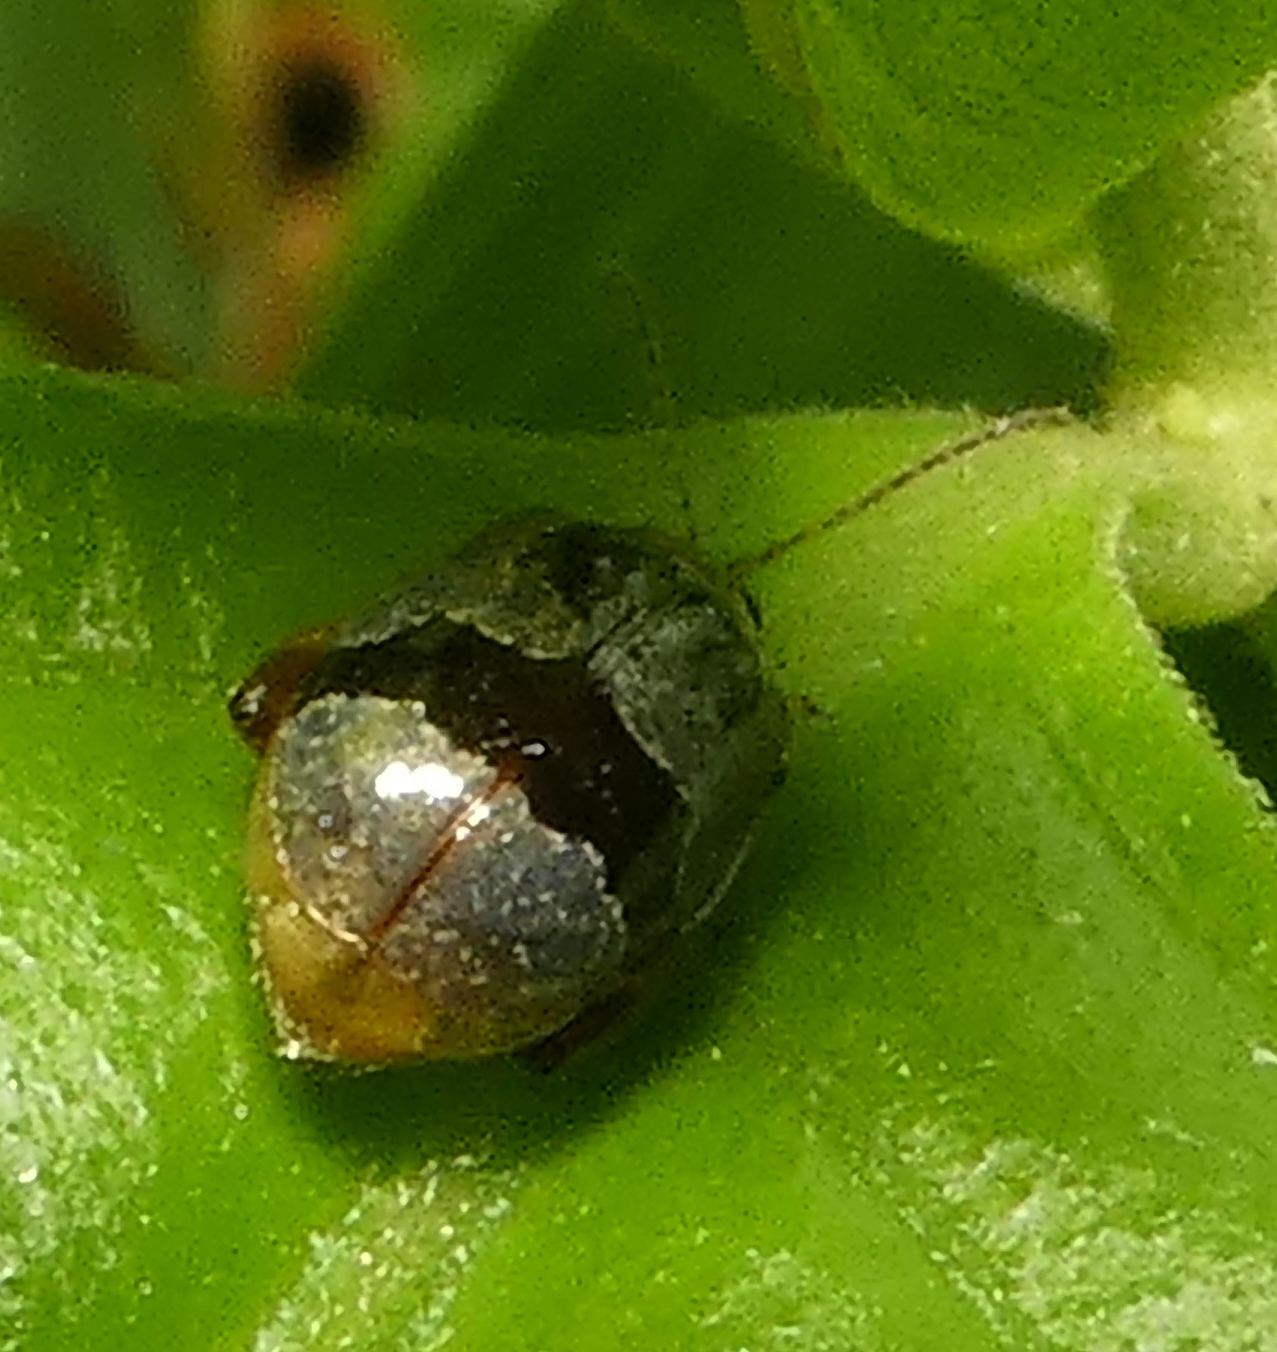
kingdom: Animalia
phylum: Arthropoda
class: Insecta
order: Coleoptera
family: Chrysomelidae
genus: Alagoasa
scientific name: Alagoasa
